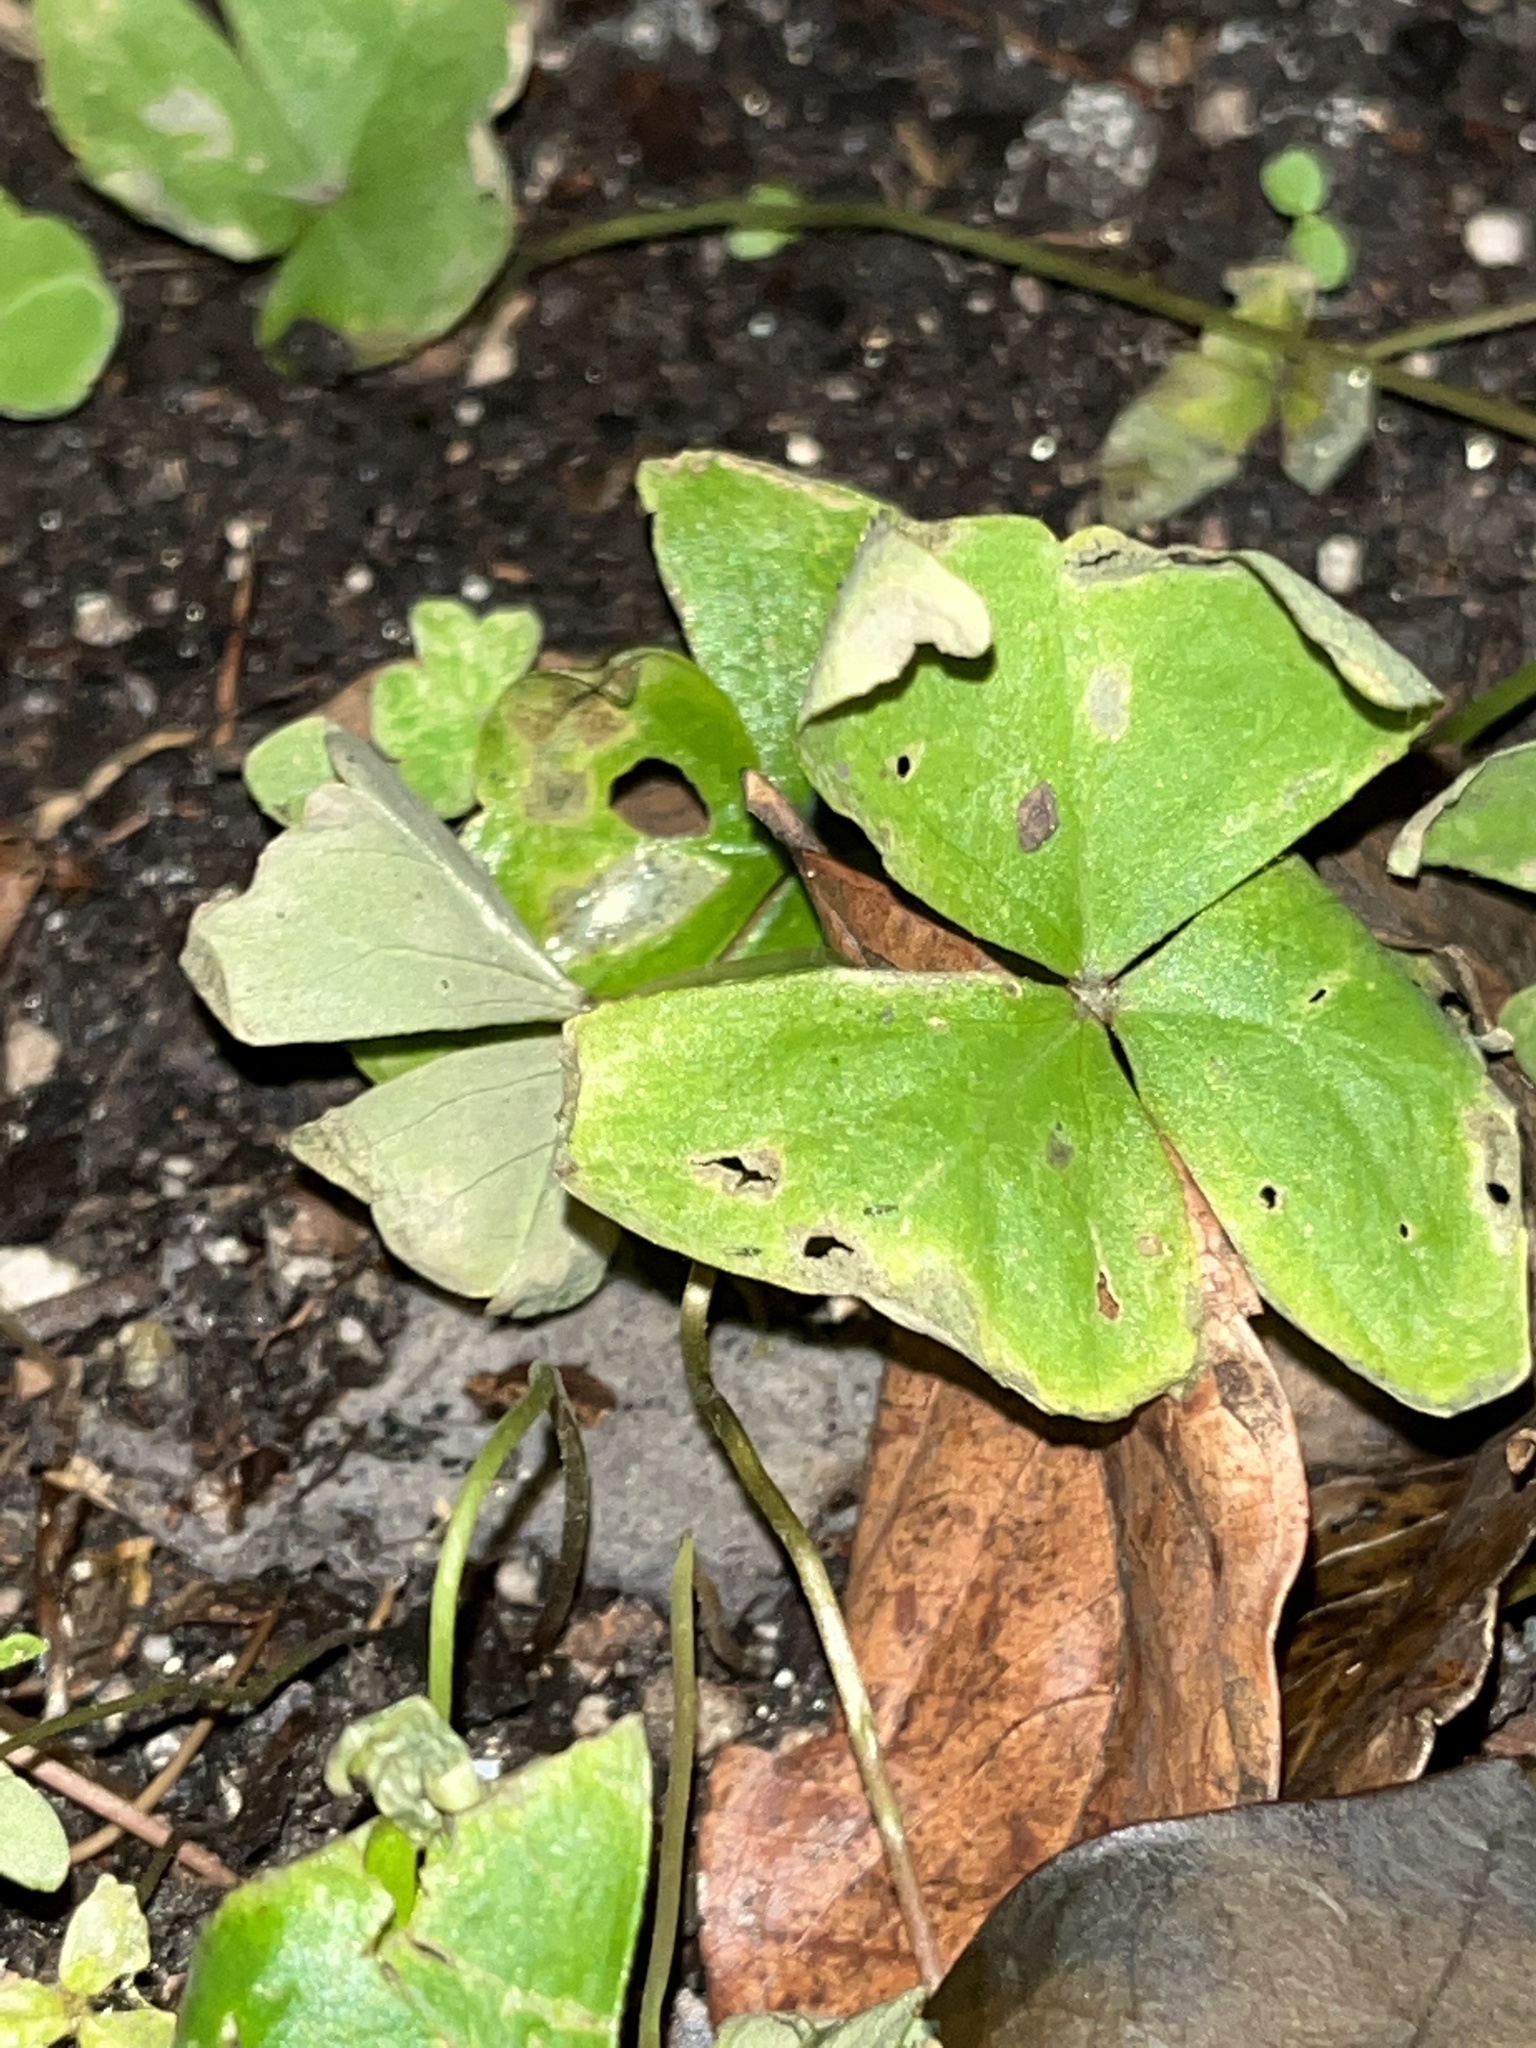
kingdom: Plantae
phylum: Tracheophyta
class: Magnoliopsida
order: Oxalidales
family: Oxalidaceae
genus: Oxalis
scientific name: Oxalis debilis
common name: Large-flowered pink-sorrel
